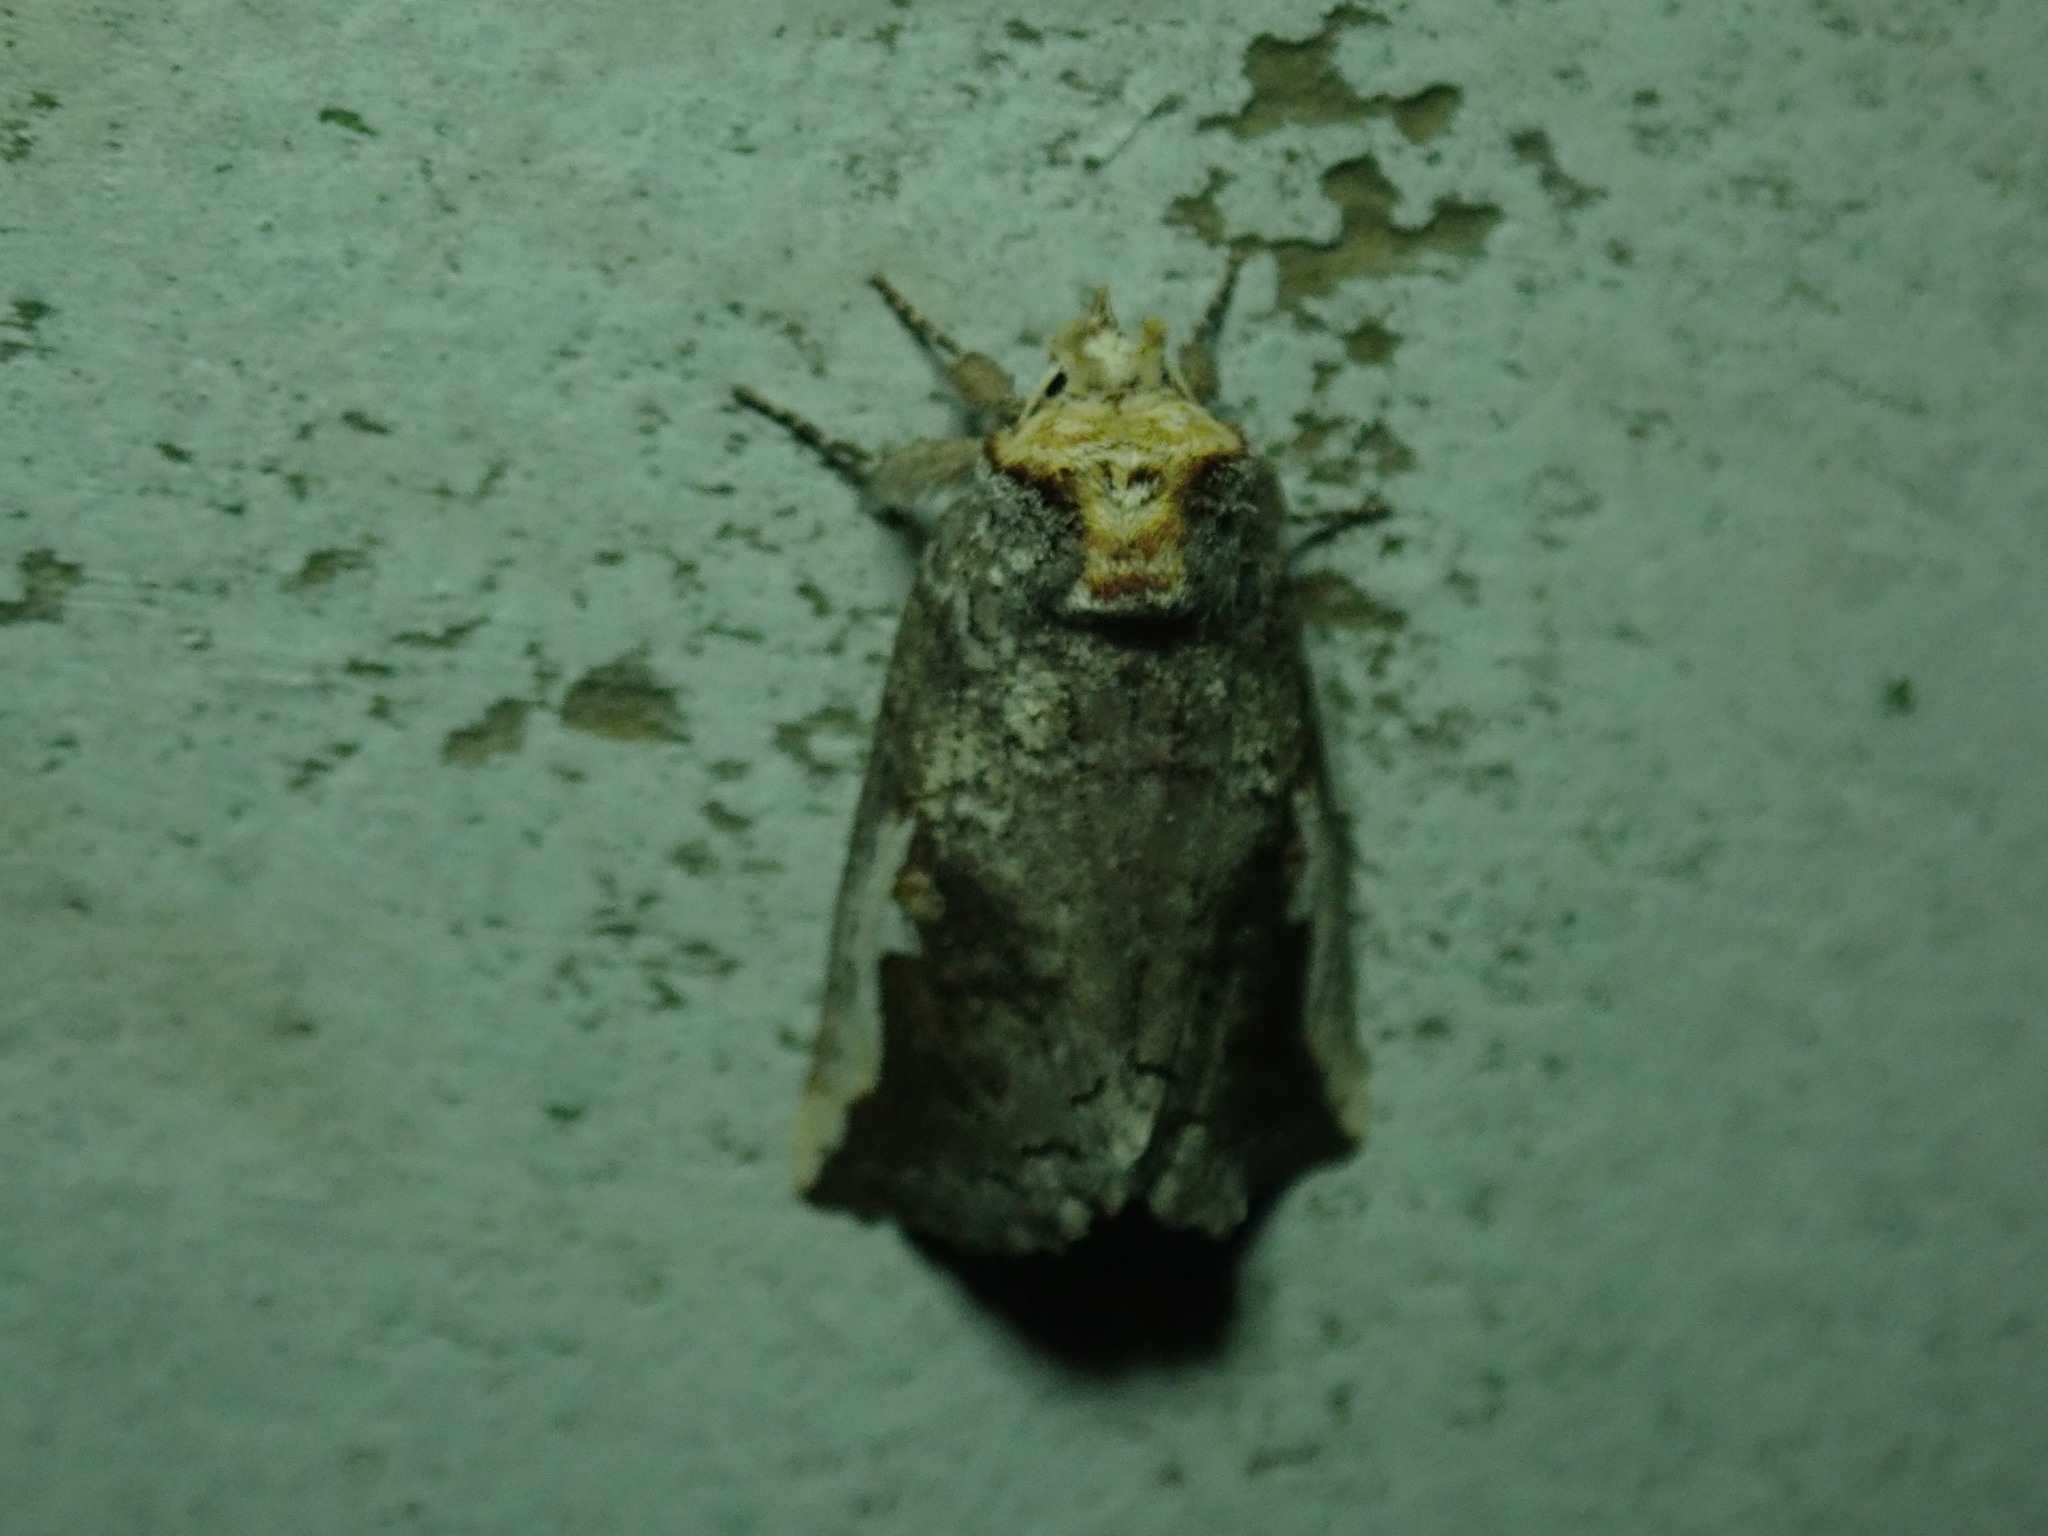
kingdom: Animalia
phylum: Arthropoda
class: Insecta
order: Lepidoptera
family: Notodontidae
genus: Symmerista
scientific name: Symmerista
